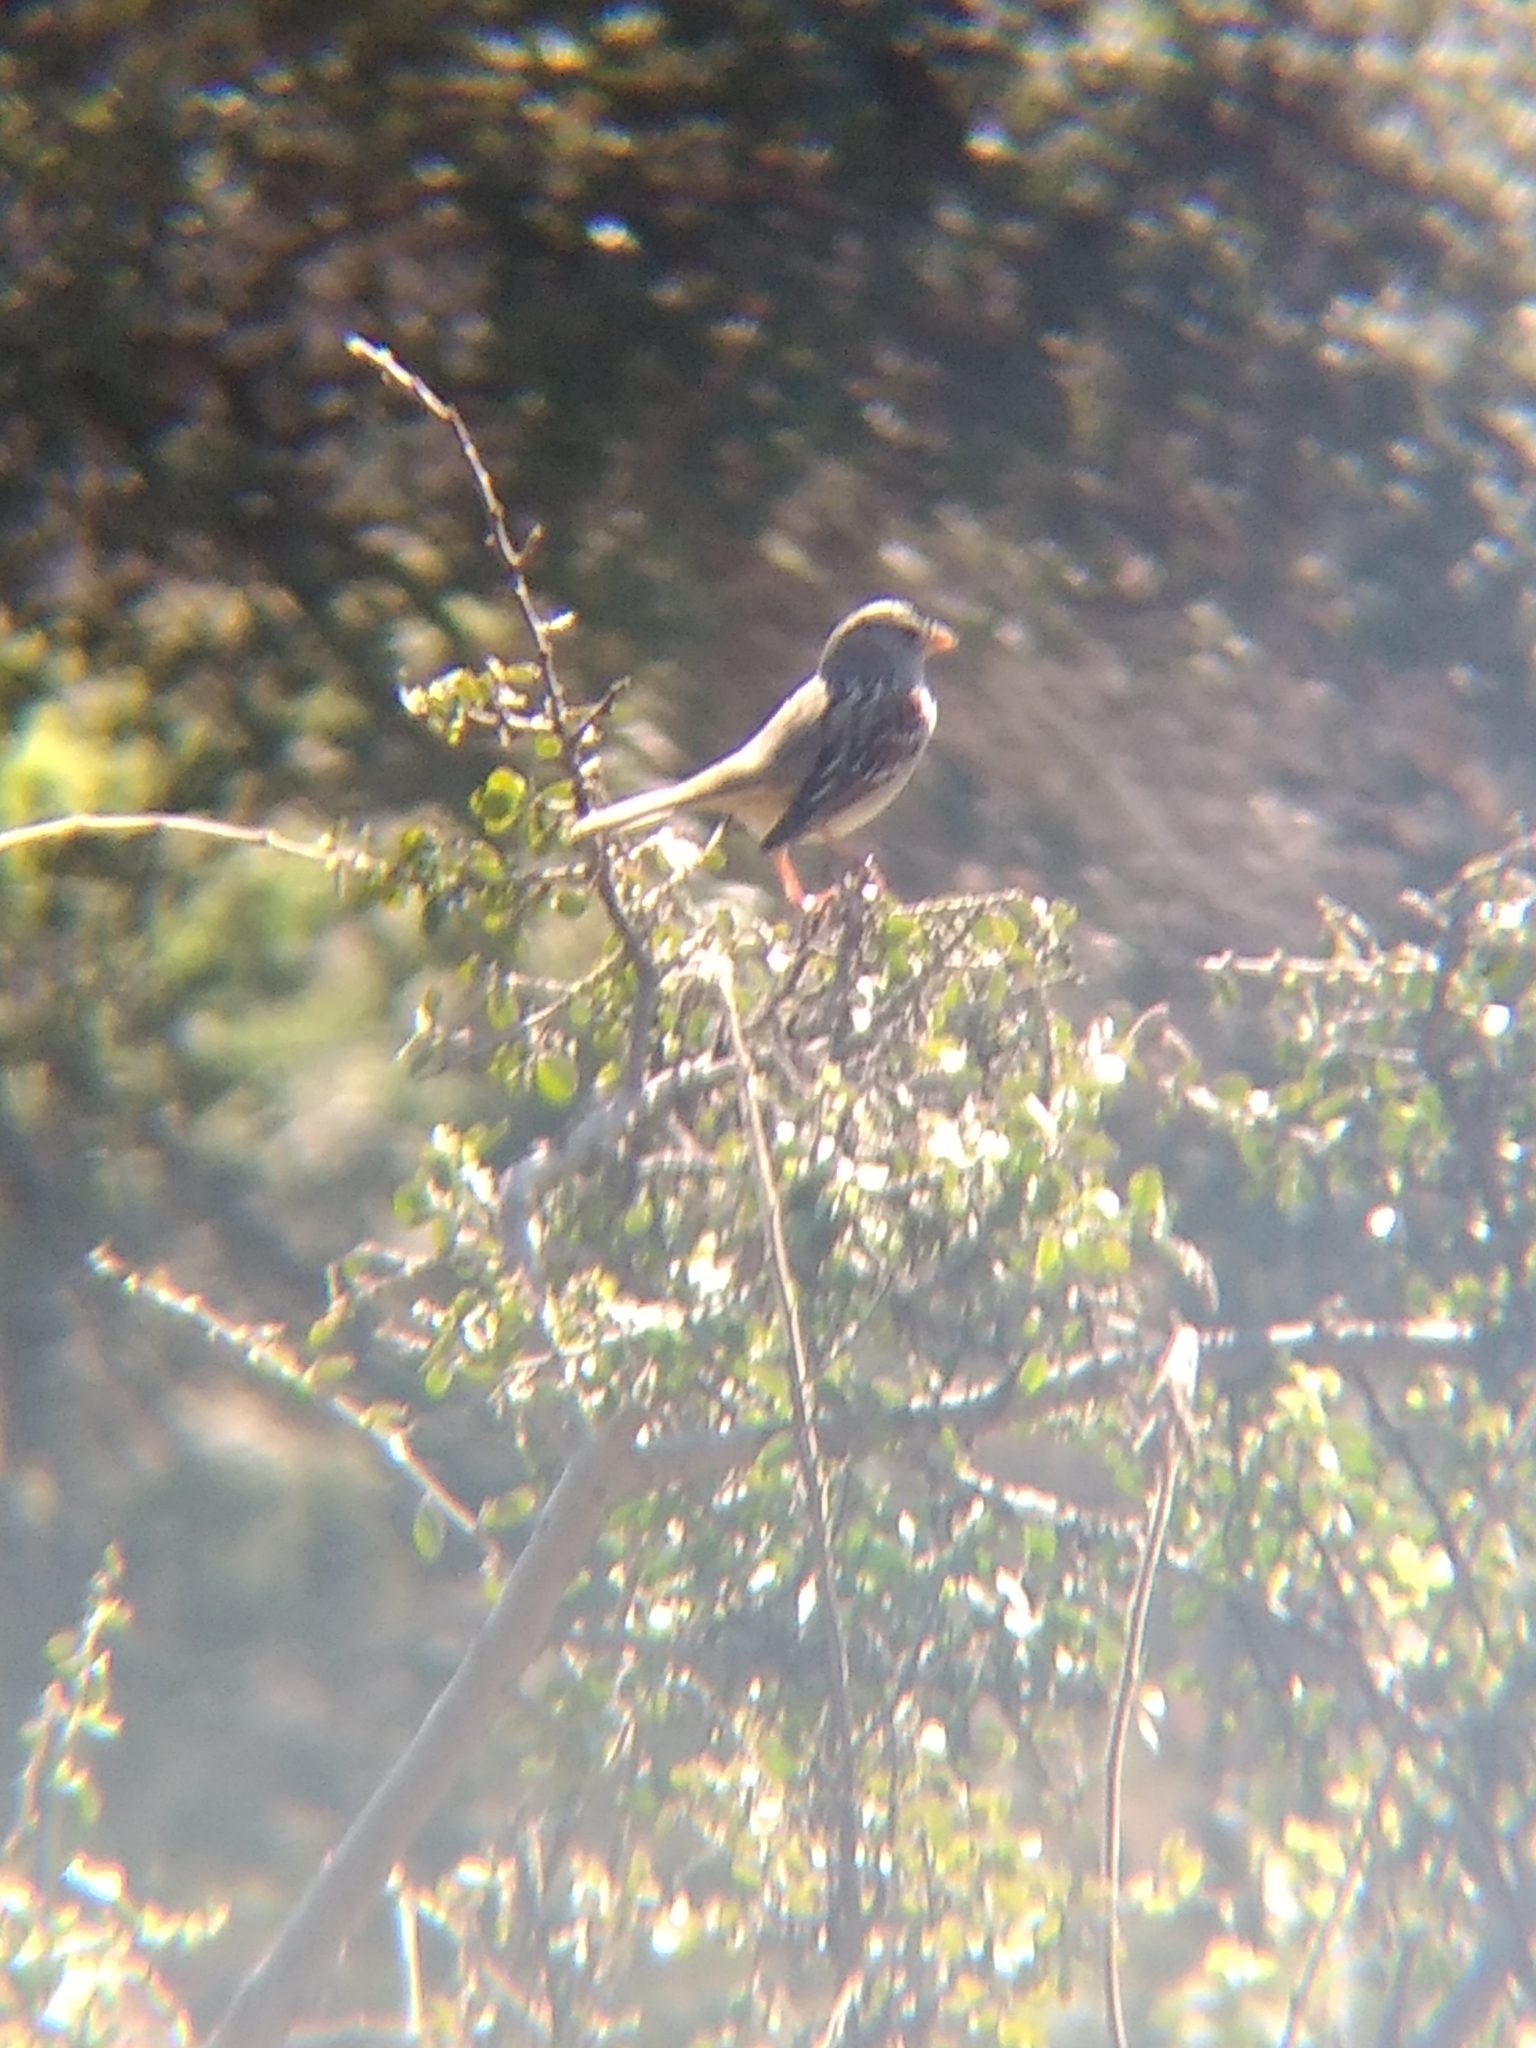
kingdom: Animalia
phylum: Chordata
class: Aves
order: Passeriformes
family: Passerellidae
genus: Zonotrichia
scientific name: Zonotrichia leucophrys
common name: White-crowned sparrow
